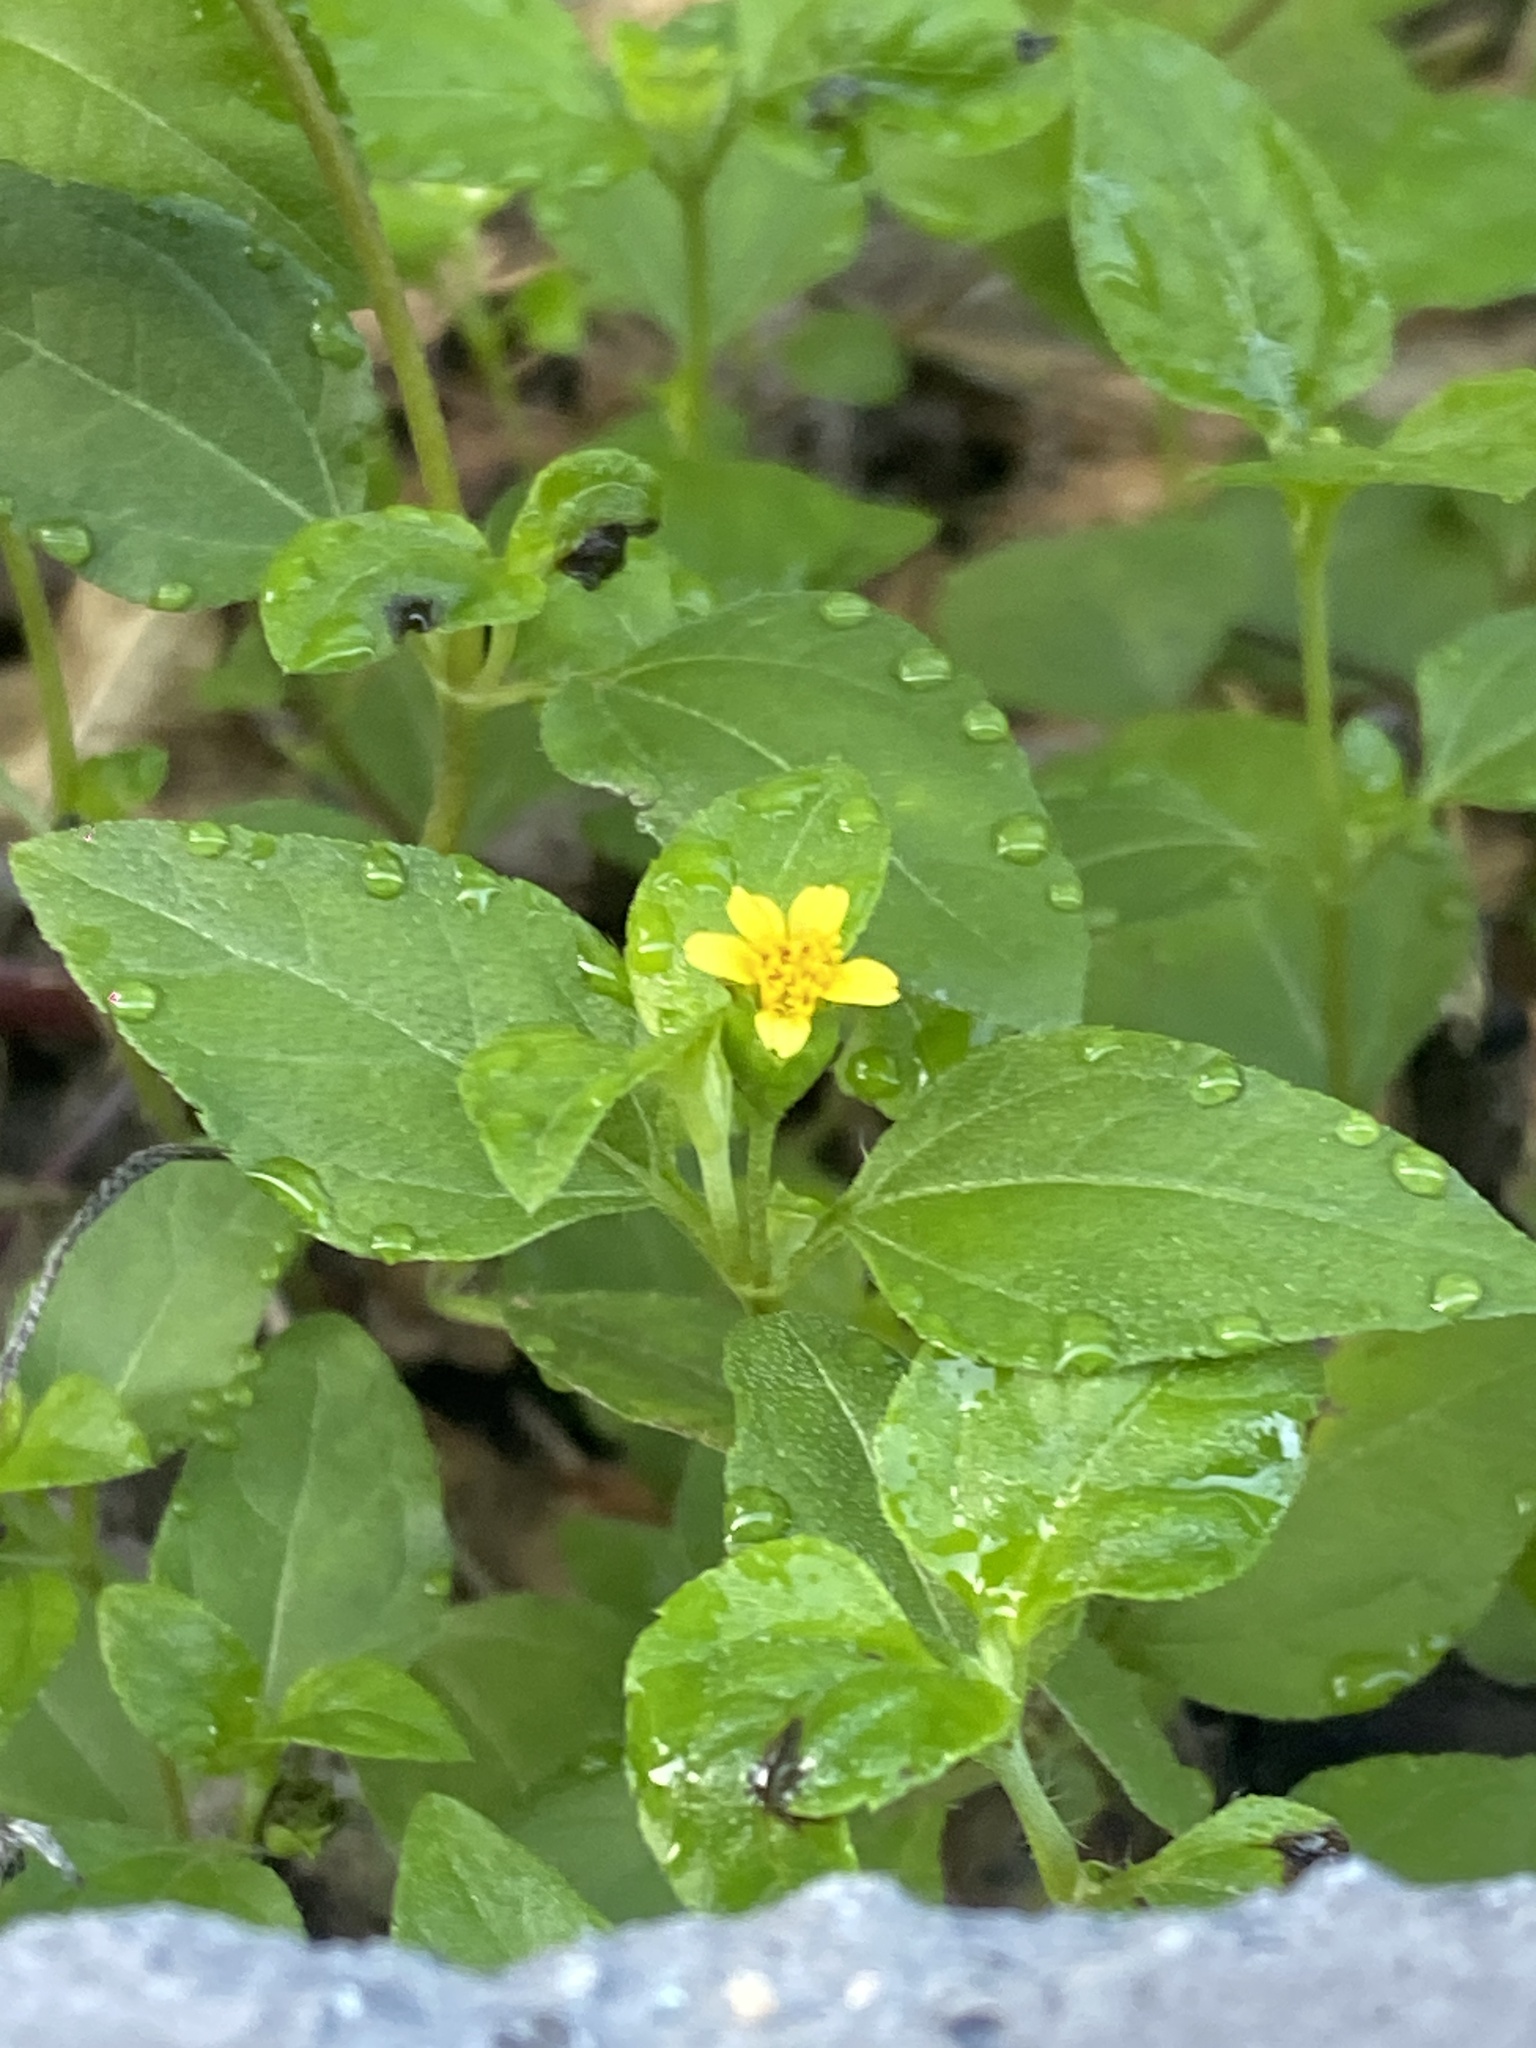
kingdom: Plantae
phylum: Tracheophyta
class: Magnoliopsida
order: Asterales
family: Asteraceae
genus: Calyptocarpus
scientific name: Calyptocarpus vialis
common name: Straggler daisy
